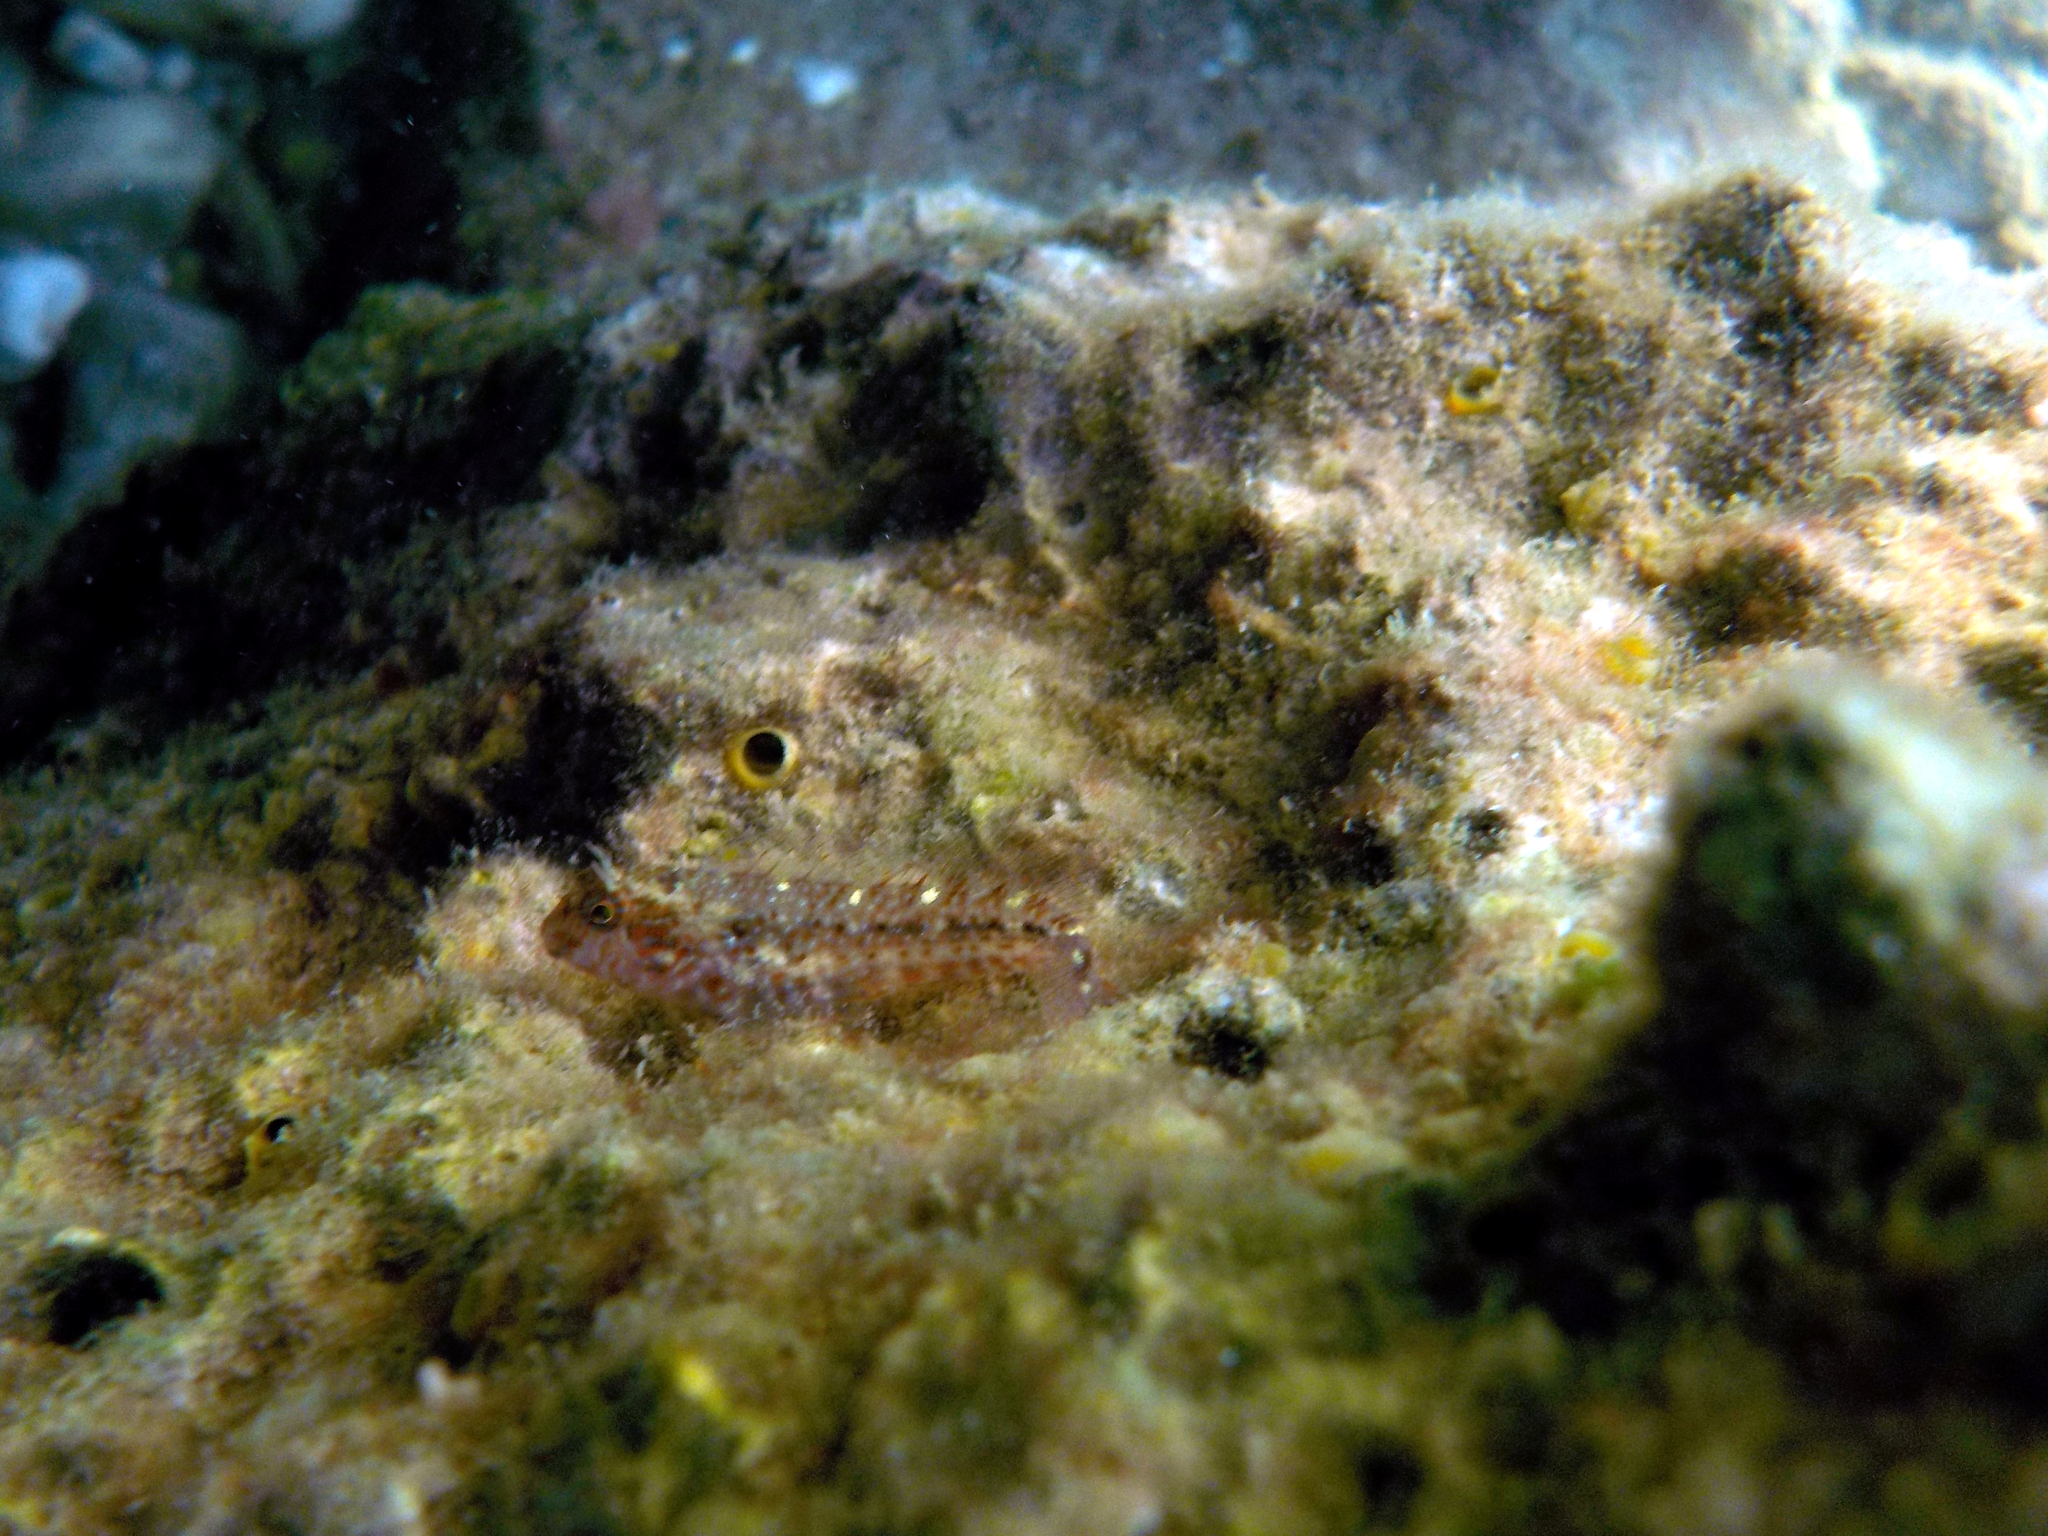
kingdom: Animalia
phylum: Chordata
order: Perciformes
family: Blenniidae
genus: Parablennius
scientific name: Parablennius zvonimiri
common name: Red blenny
